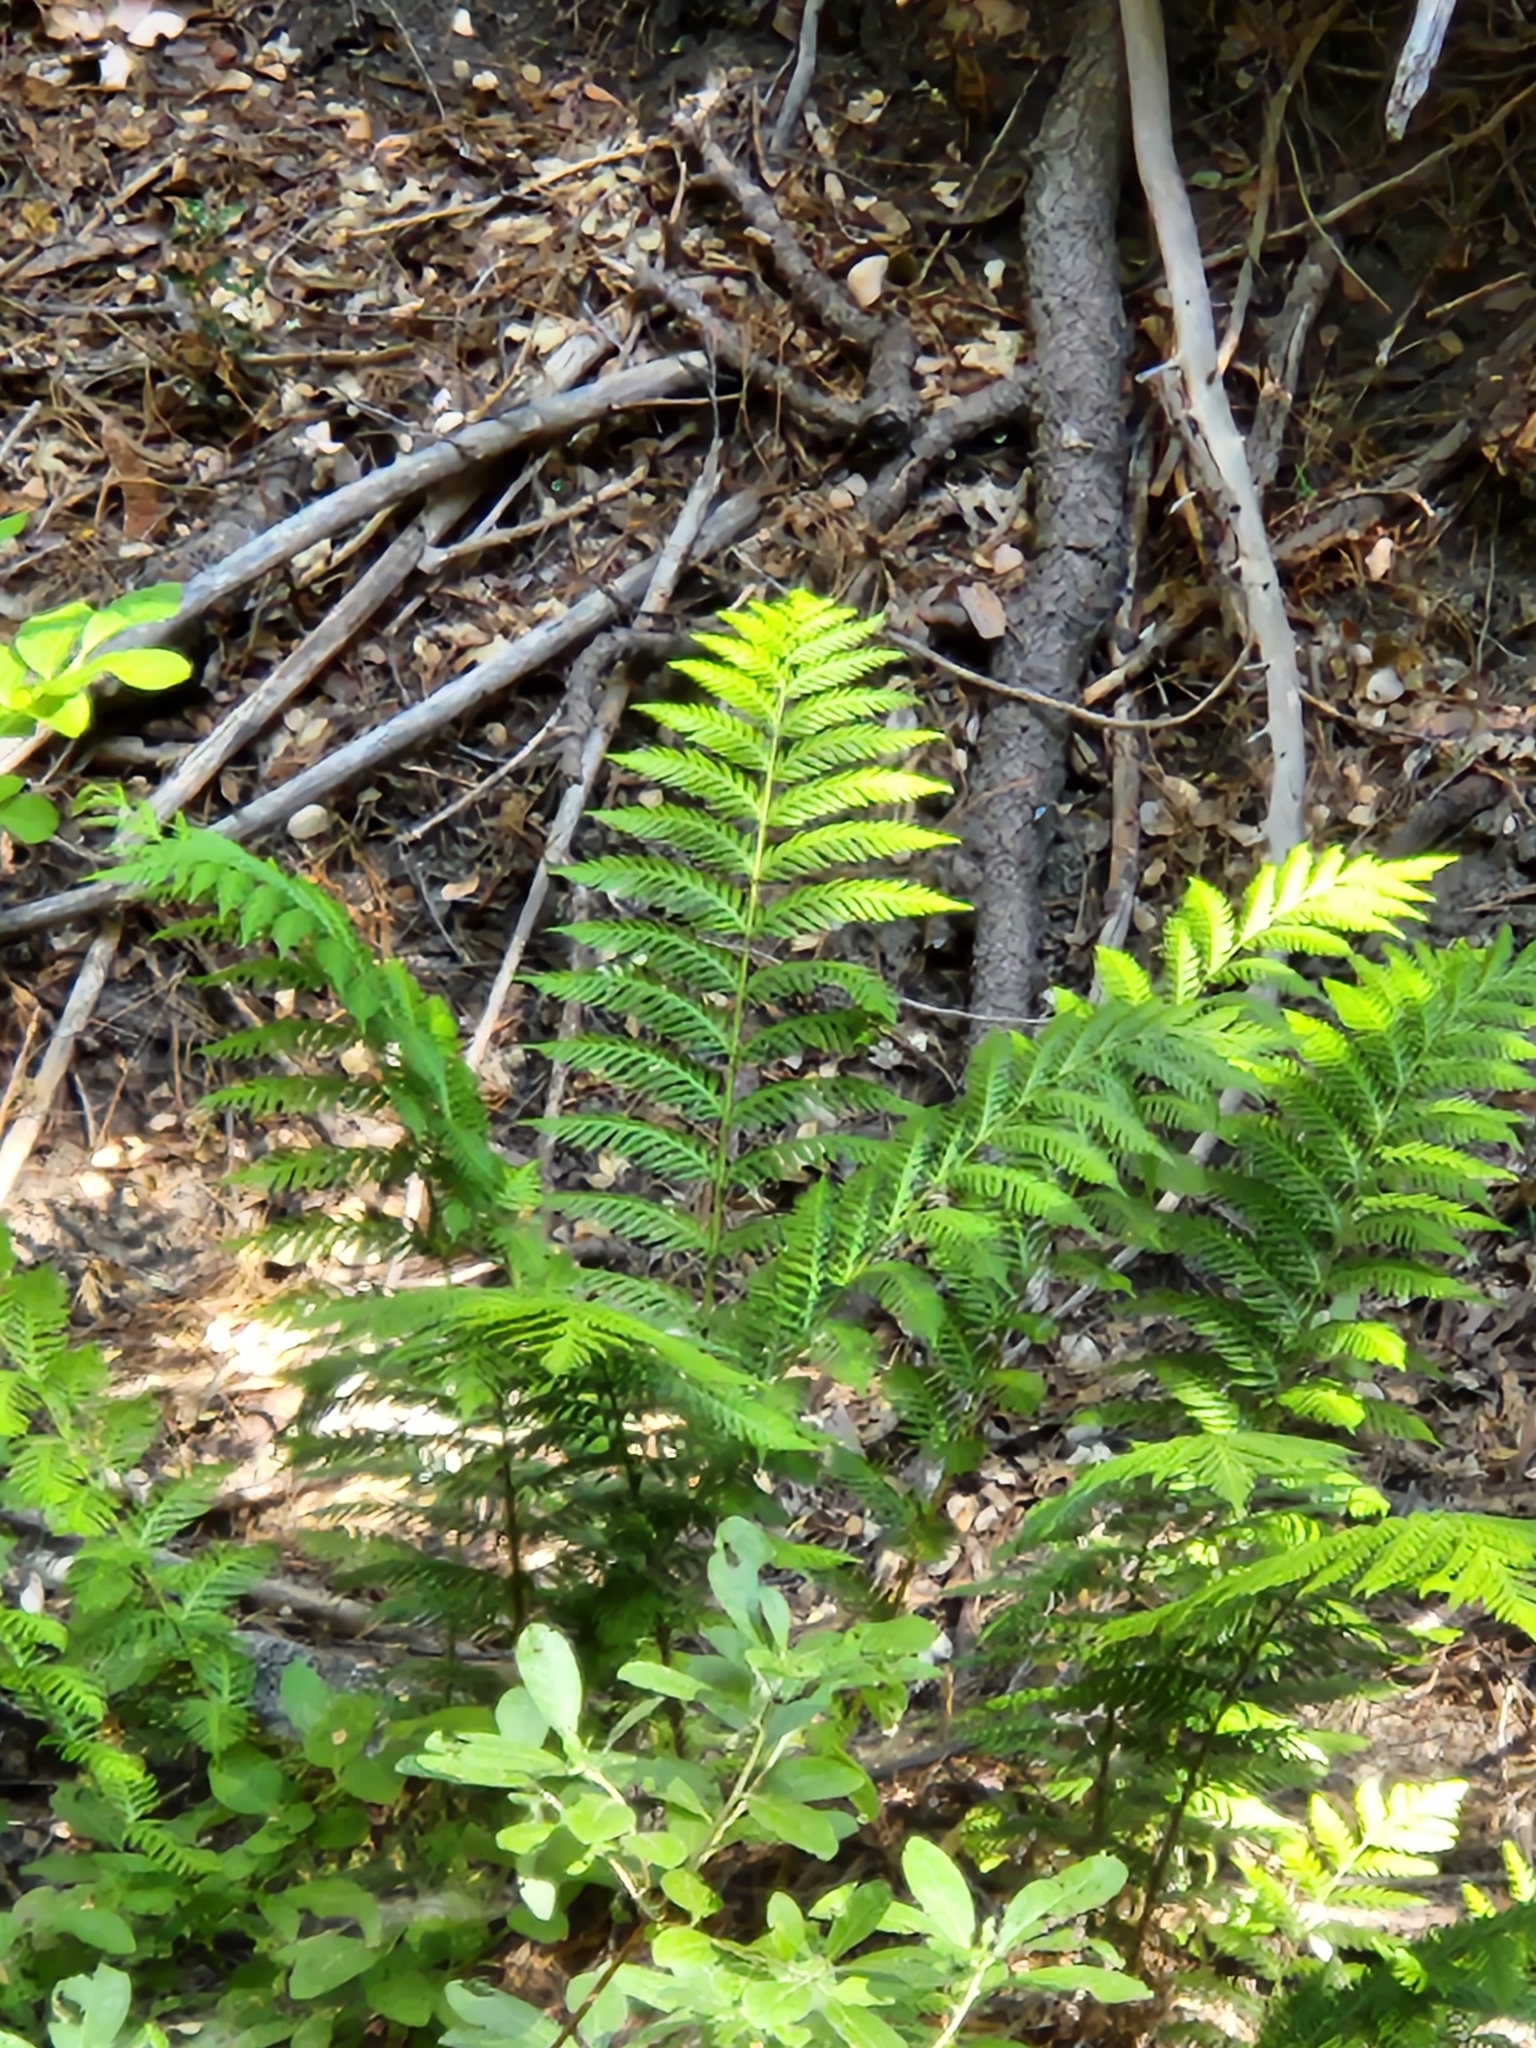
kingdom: Plantae
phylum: Tracheophyta
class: Polypodiopsida
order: Polypodiales
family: Blechnaceae
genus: Woodwardia
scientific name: Woodwardia fimbriata
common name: Giant chain fern
